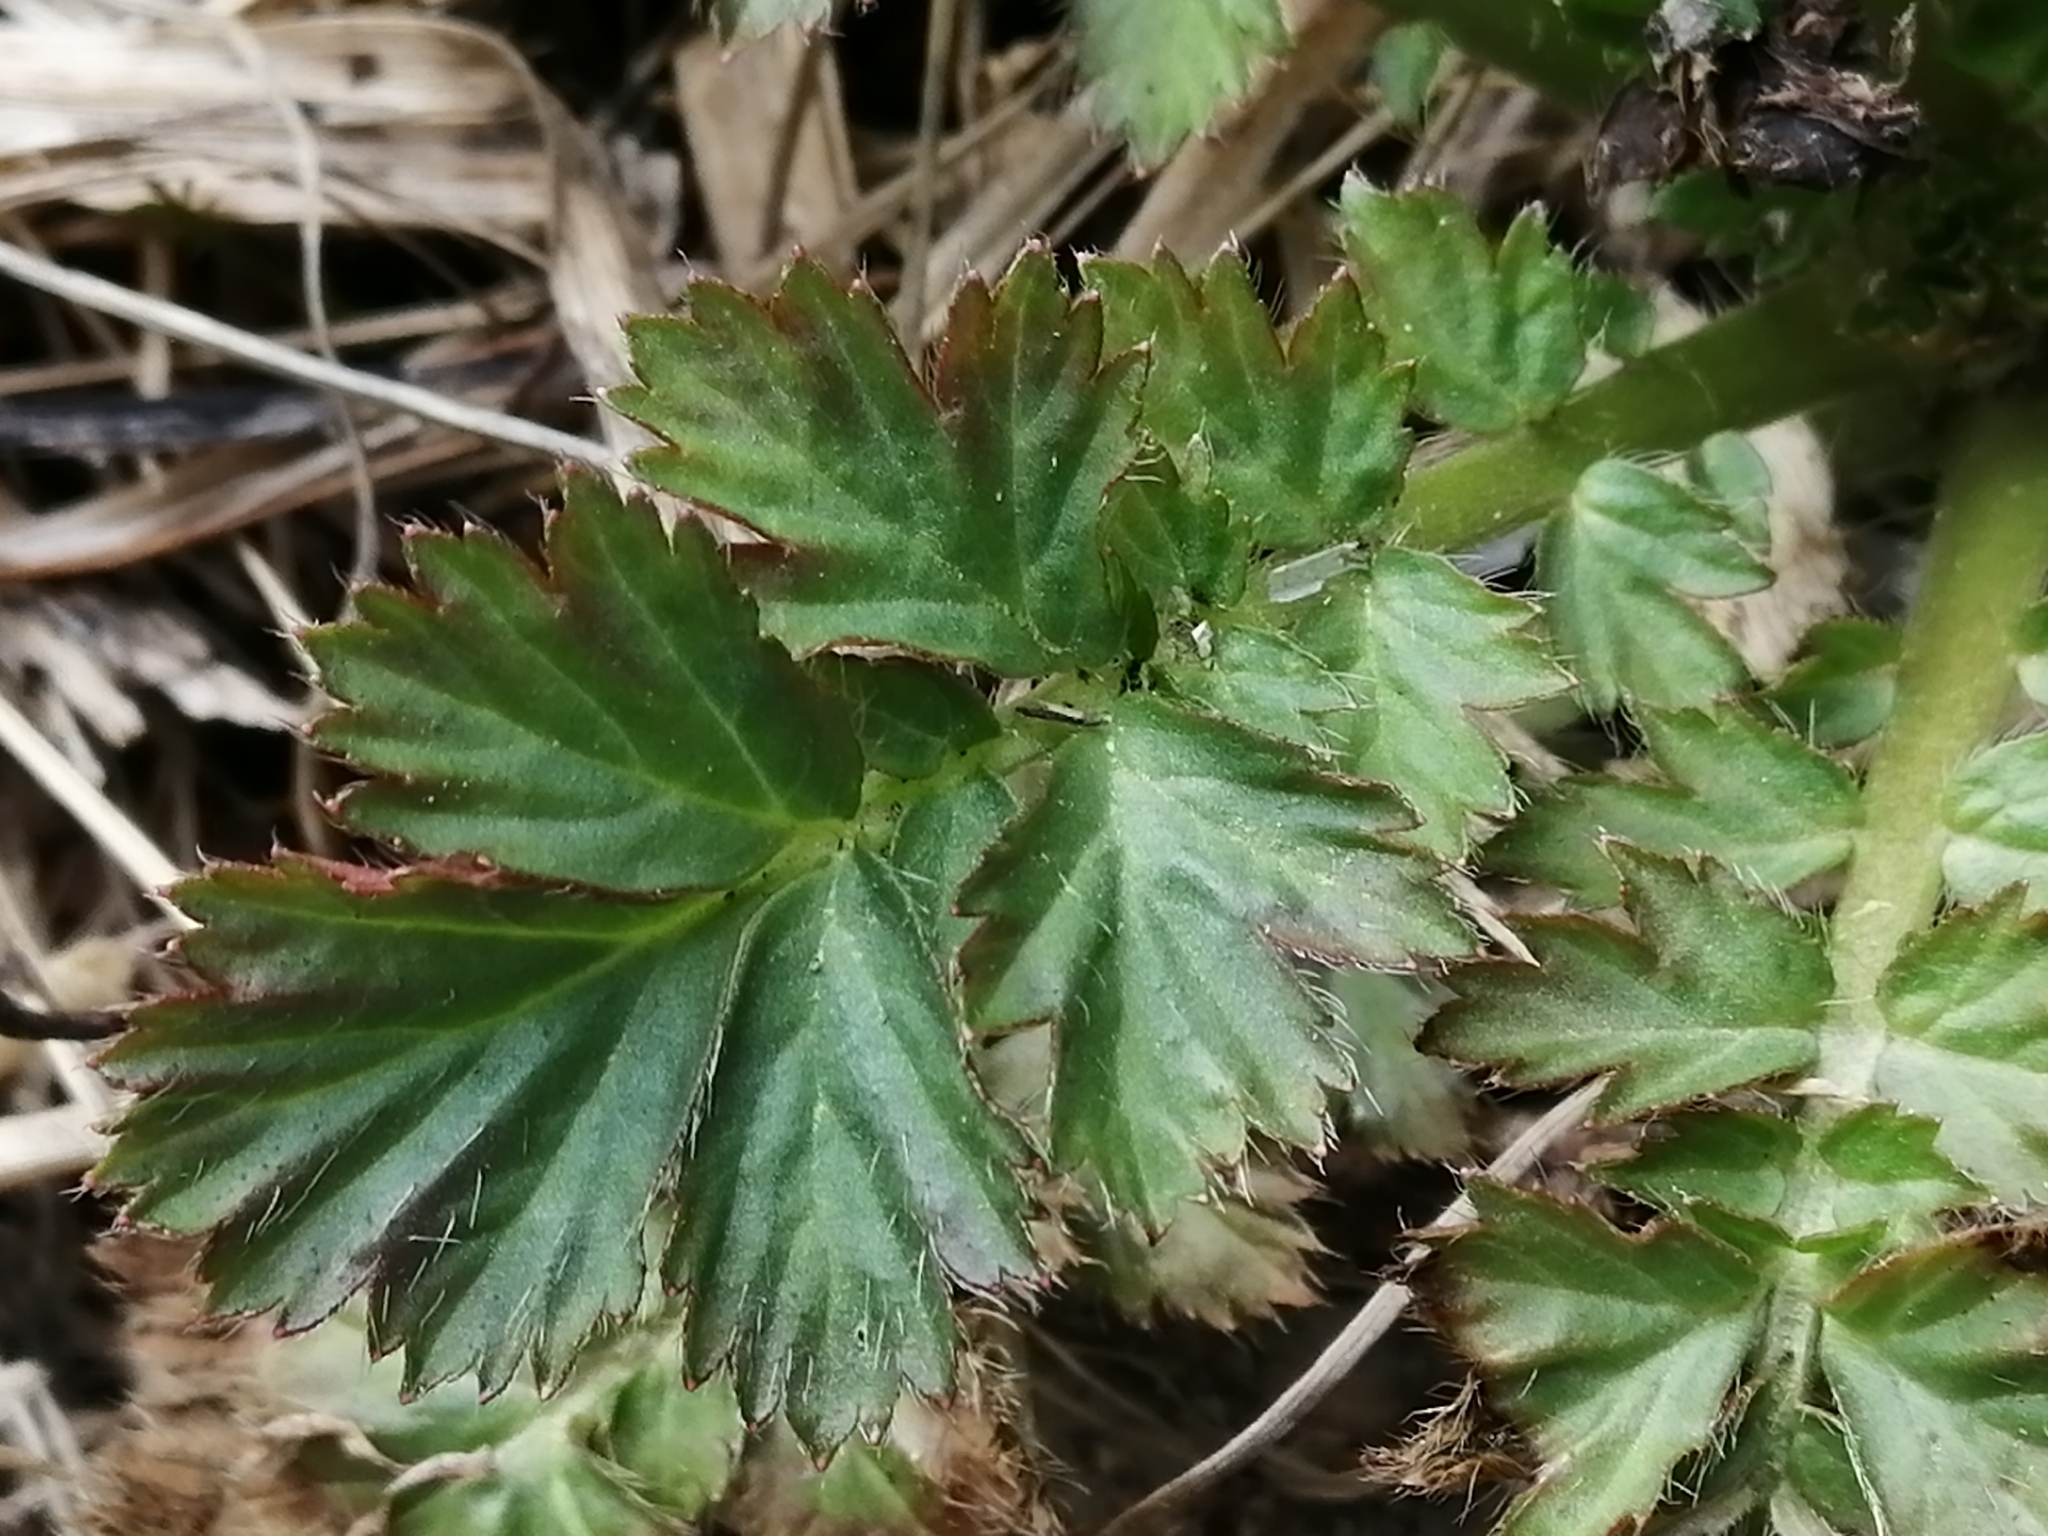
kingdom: Plantae
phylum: Tracheophyta
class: Magnoliopsida
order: Rosales
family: Rosaceae
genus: Geum
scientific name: Geum aleppicum
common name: Yellow avens
